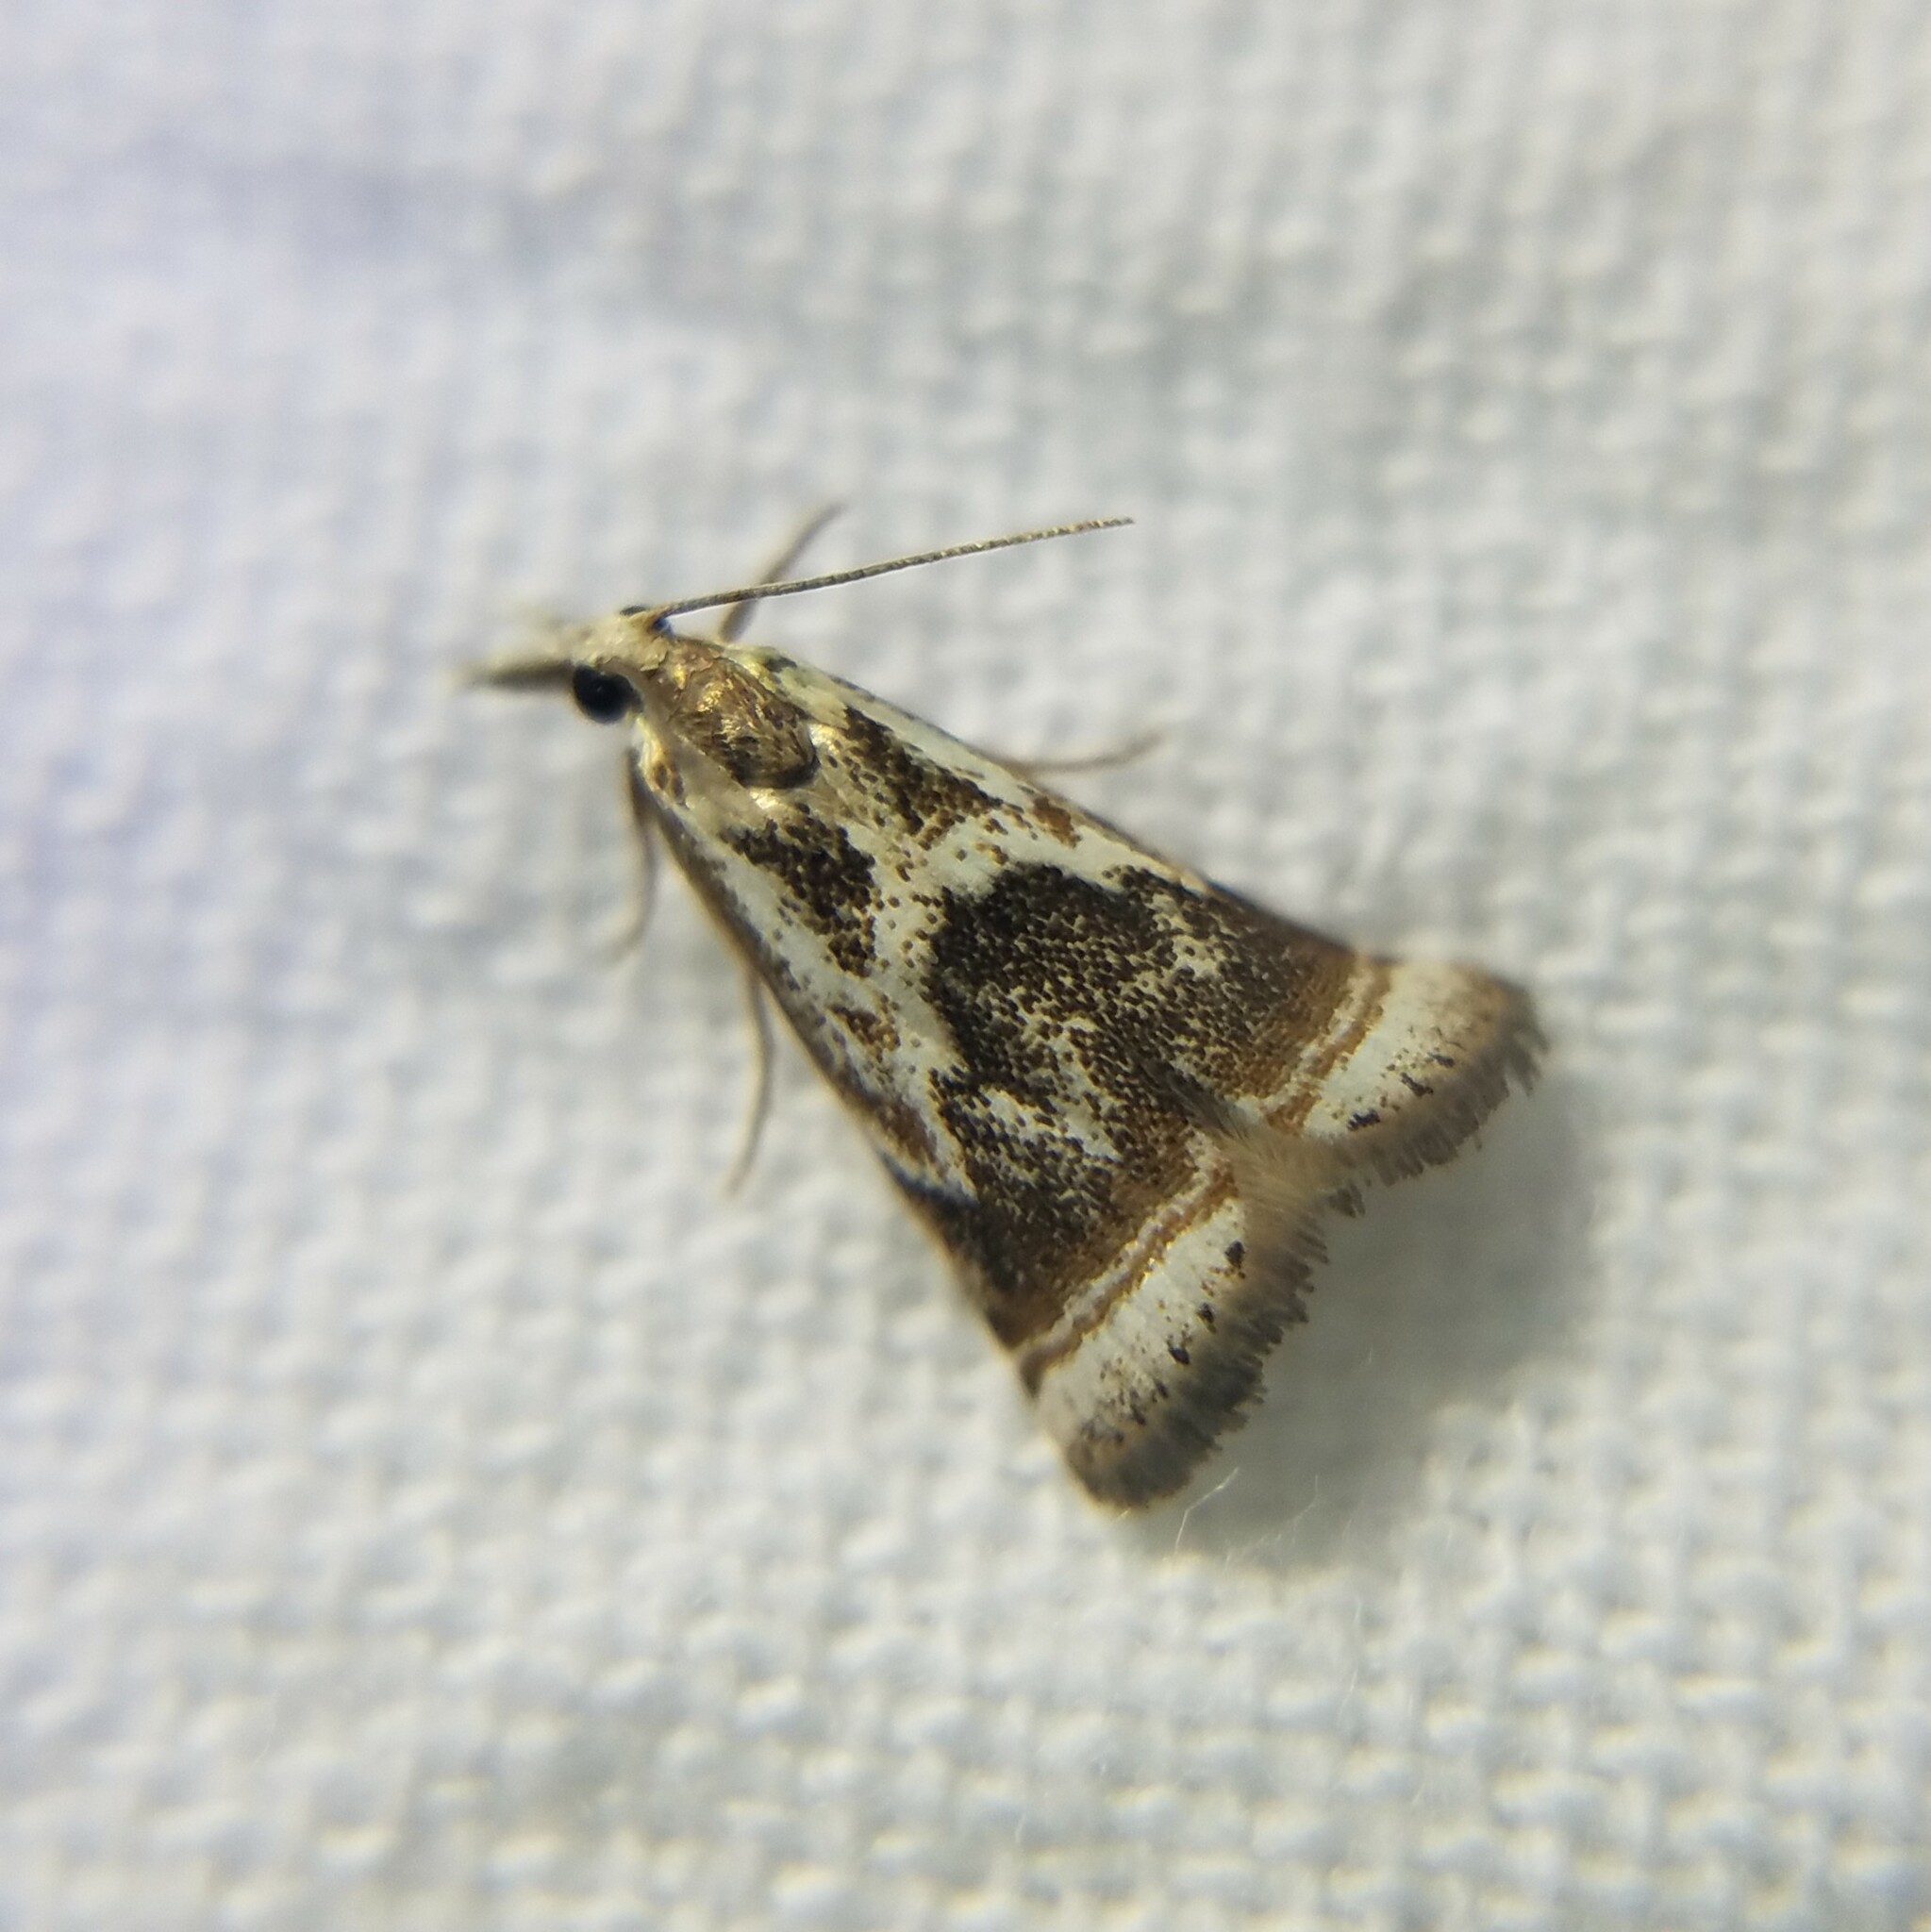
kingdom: Animalia
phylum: Arthropoda
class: Insecta
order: Lepidoptera
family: Crambidae
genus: Microcrambus
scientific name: Microcrambus elegans
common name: Elegant grass-veneer
